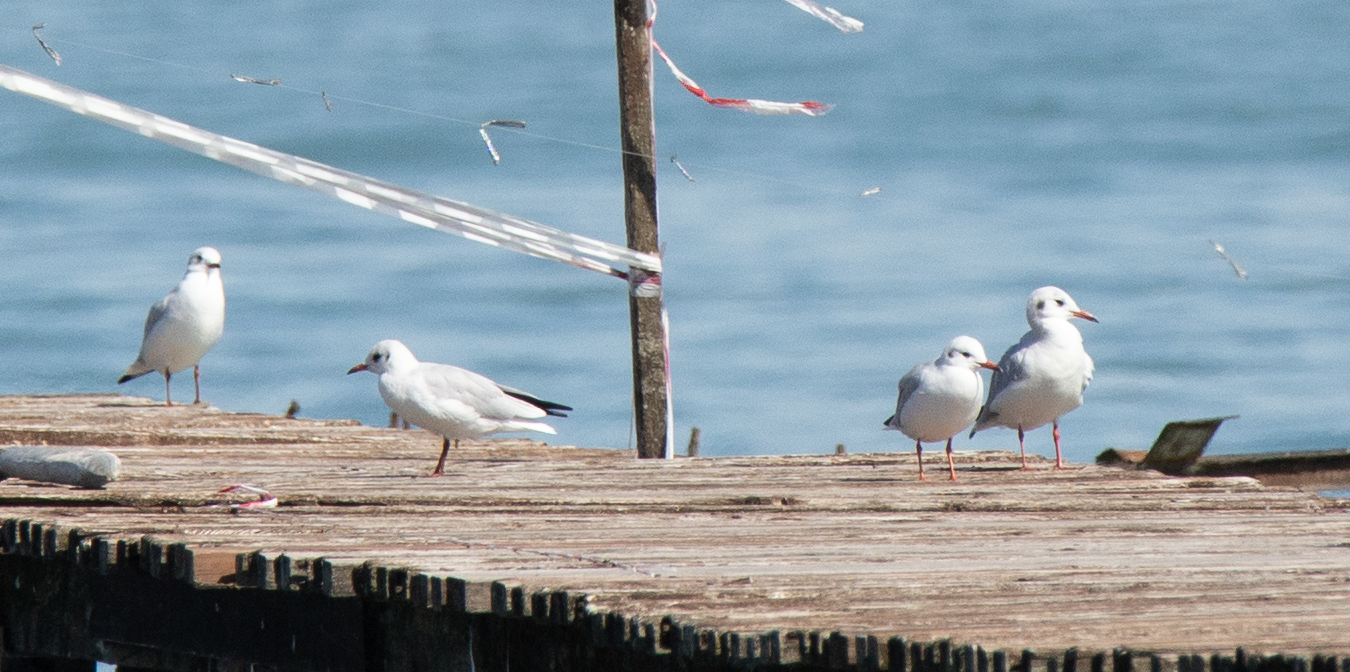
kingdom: Animalia
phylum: Chordata
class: Aves
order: Charadriiformes
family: Laridae
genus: Chroicocephalus
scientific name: Chroicocephalus ridibundus
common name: Black-headed gull
